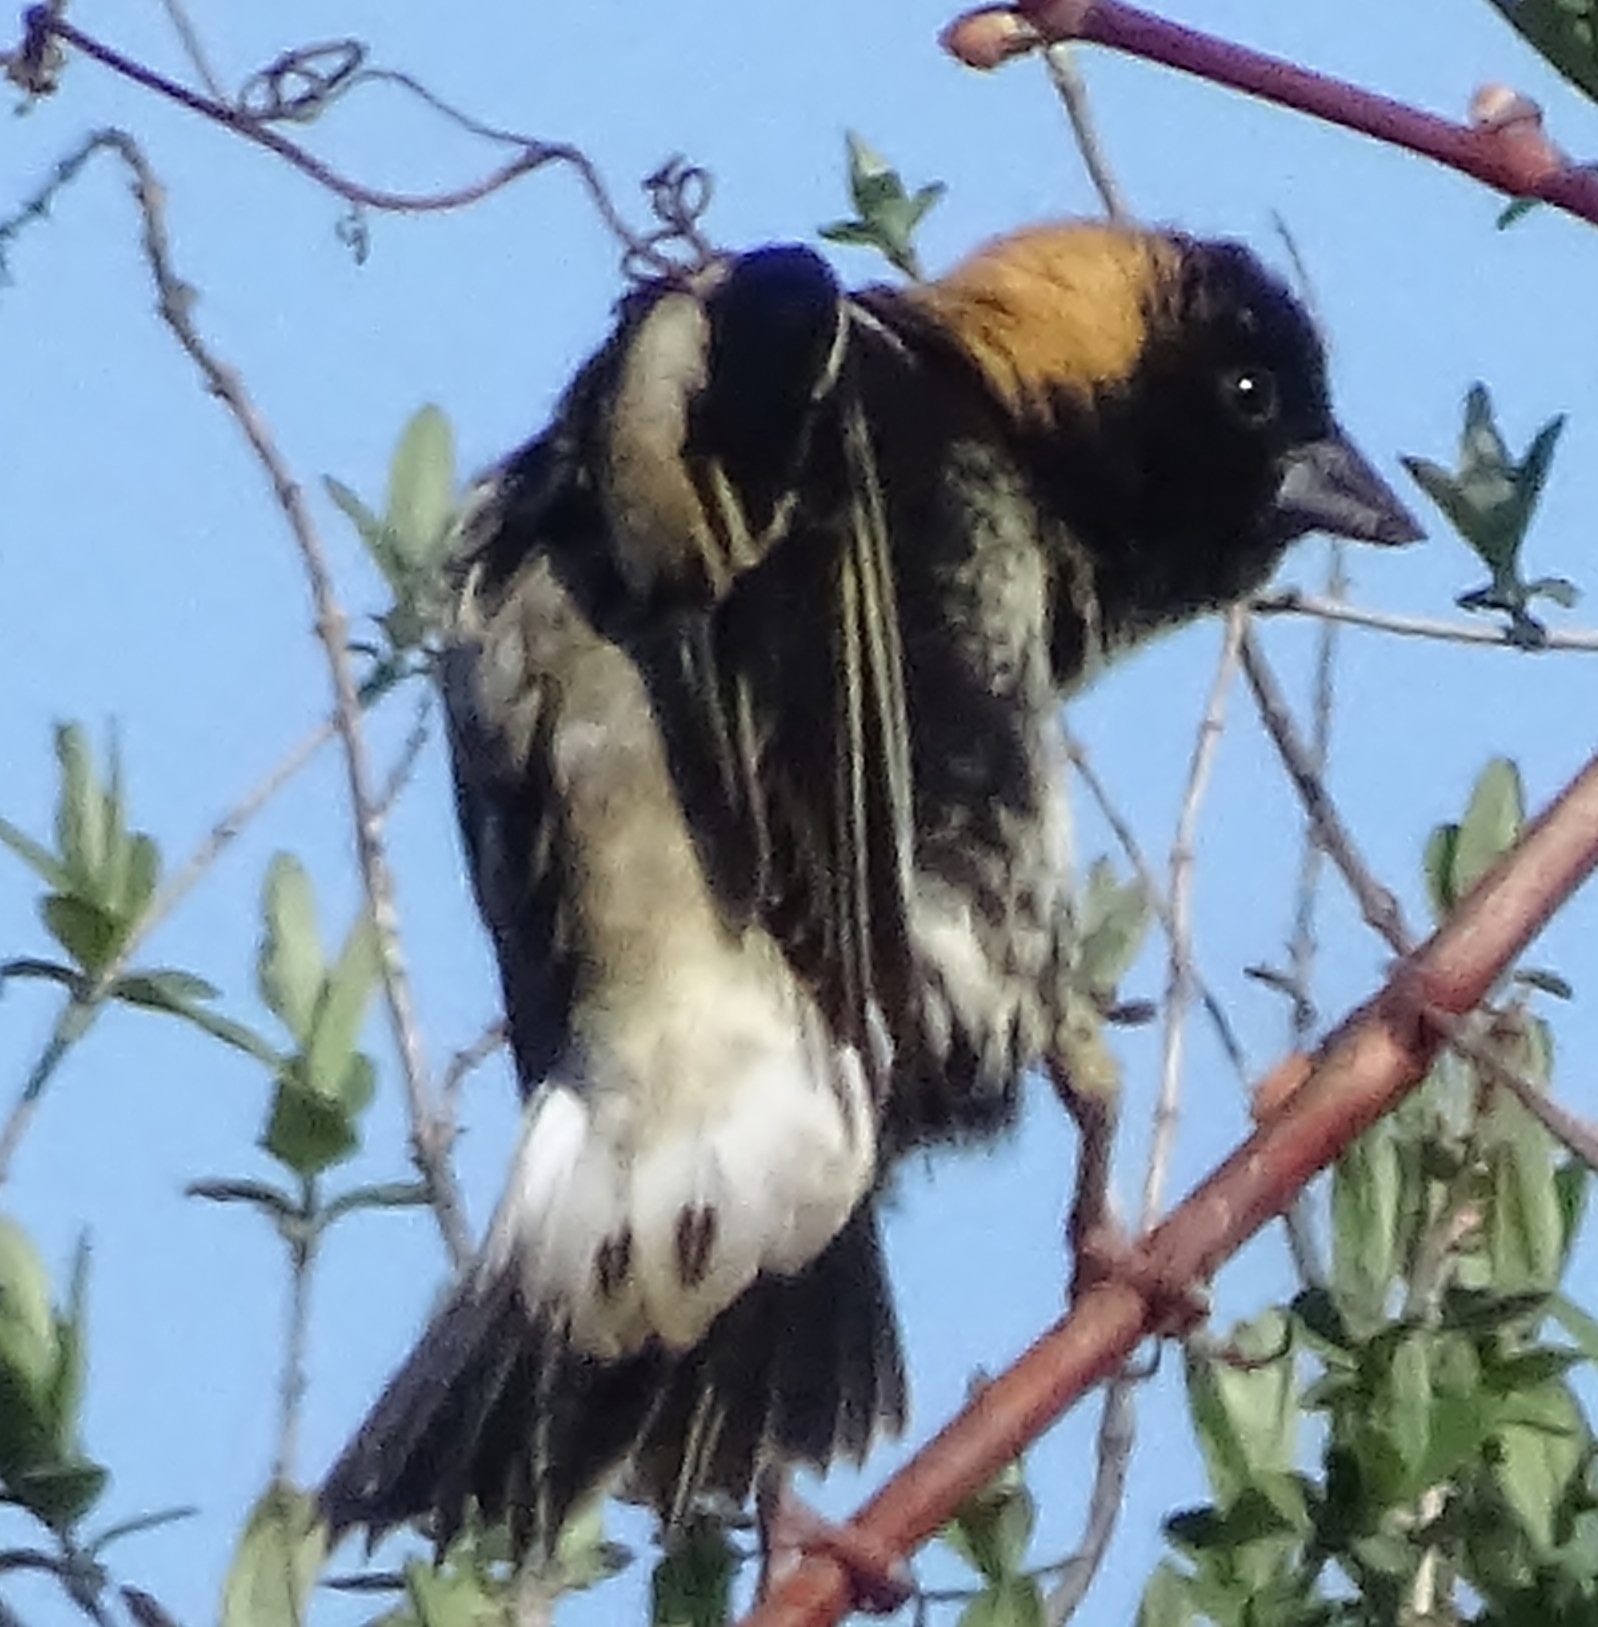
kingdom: Animalia
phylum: Chordata
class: Aves
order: Passeriformes
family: Icteridae
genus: Dolichonyx
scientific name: Dolichonyx oryzivorus
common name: Bobolink
